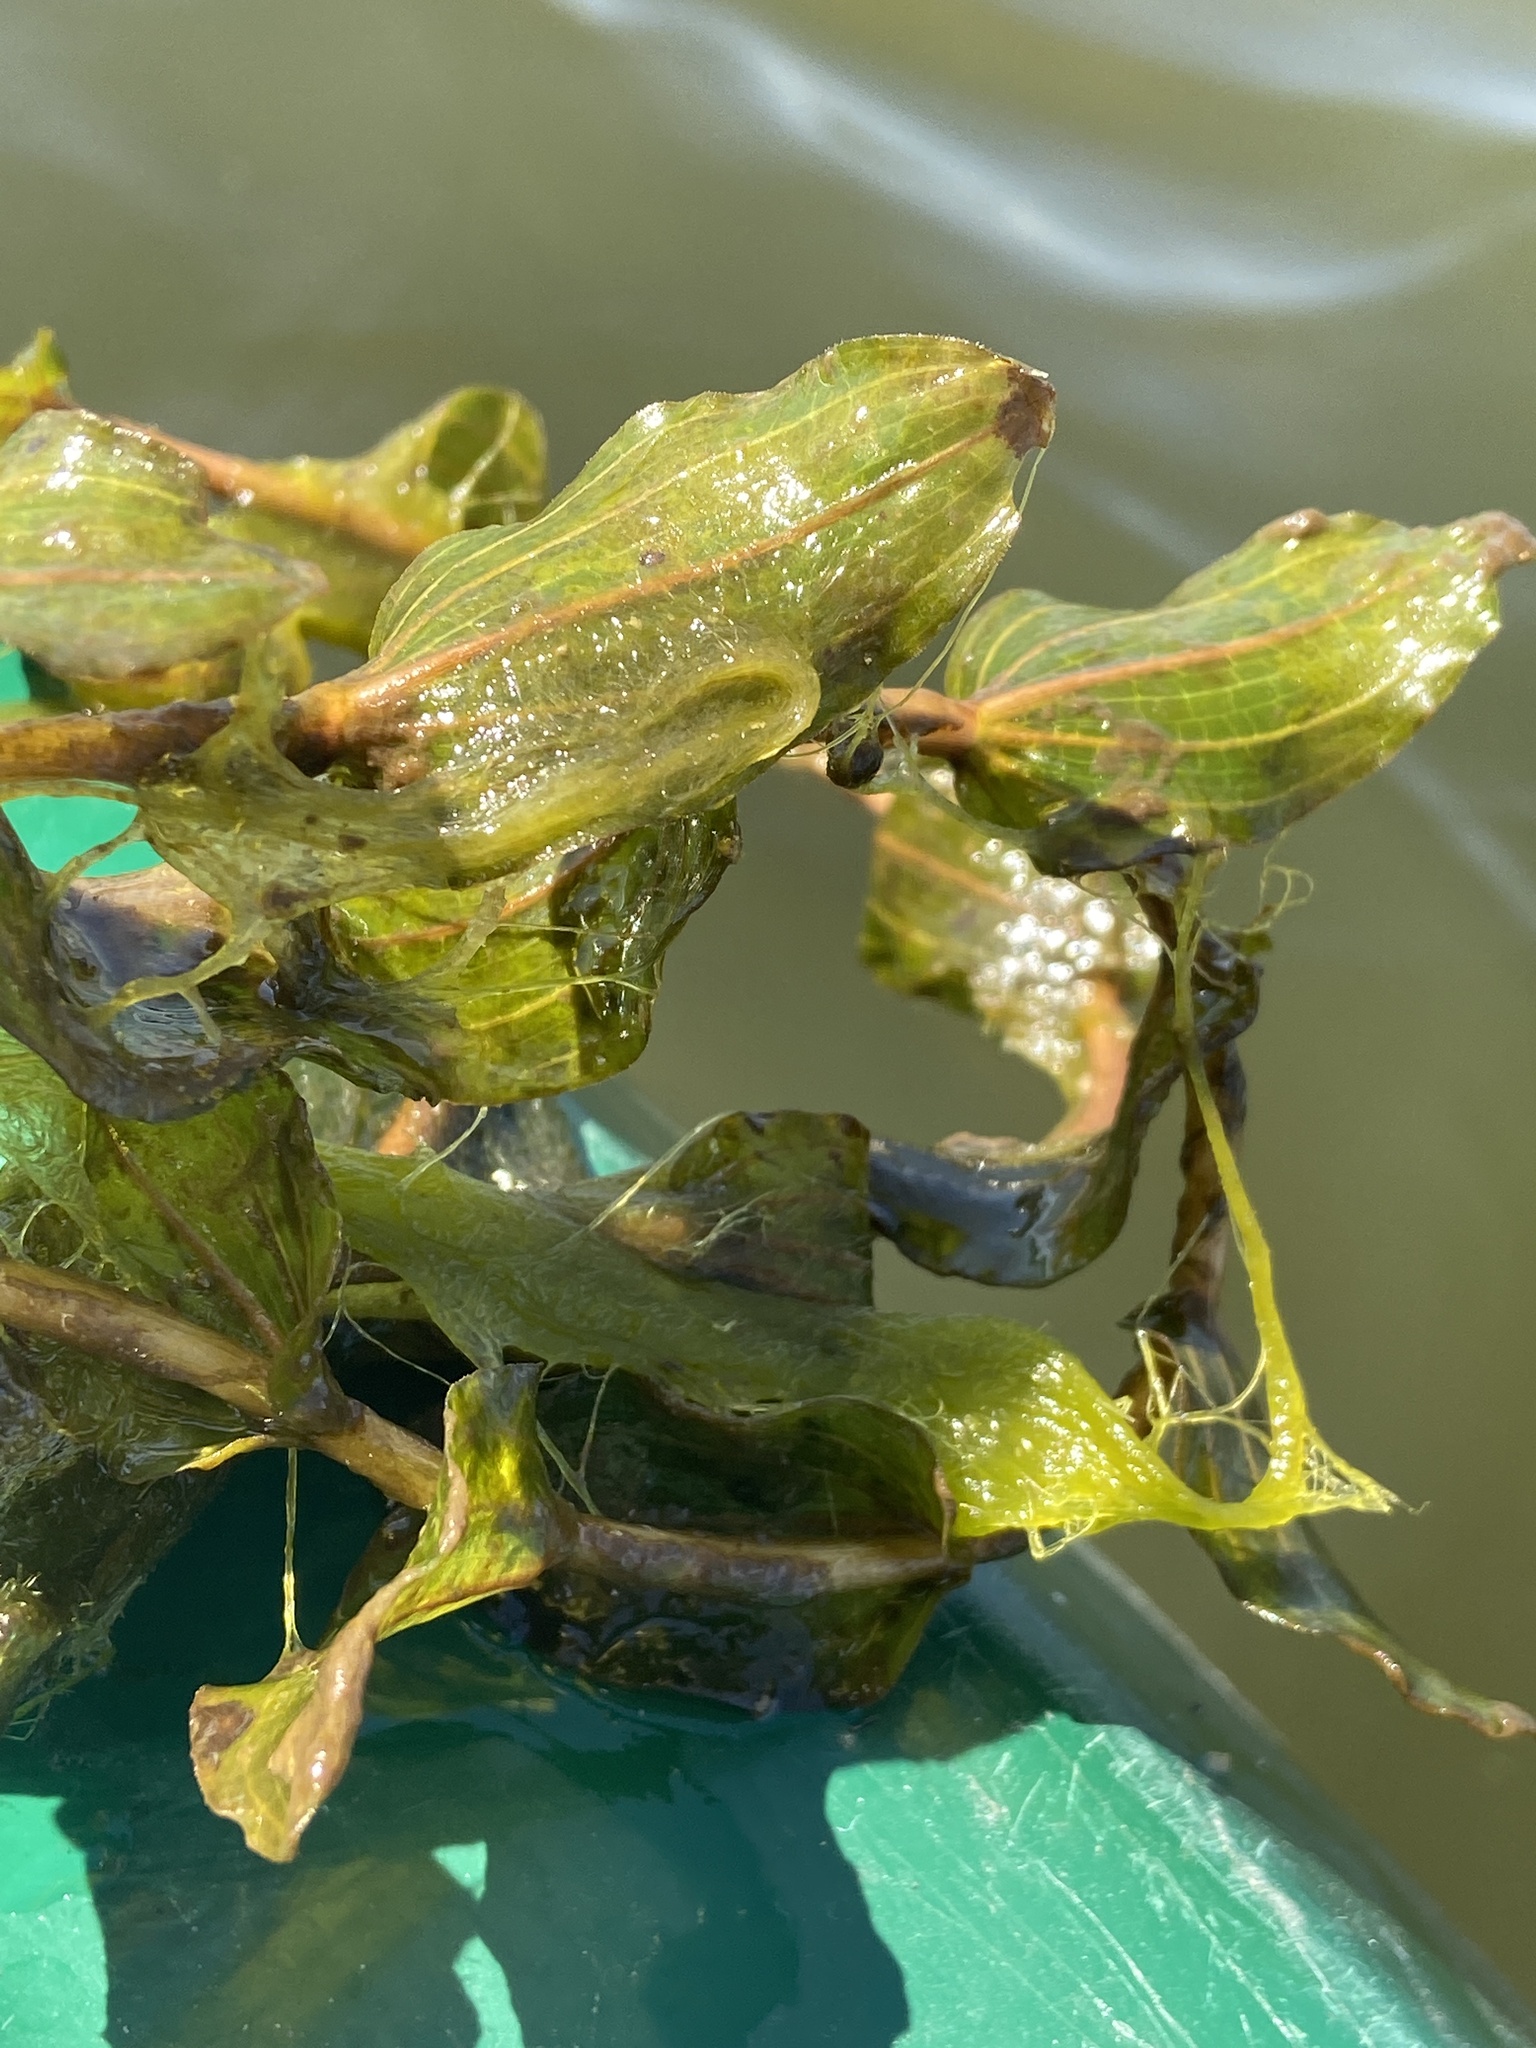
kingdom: Plantae
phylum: Tracheophyta
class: Liliopsida
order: Alismatales
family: Potamogetonaceae
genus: Potamogeton
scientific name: Potamogeton perfoliatus
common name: Perfoliate pondweed
